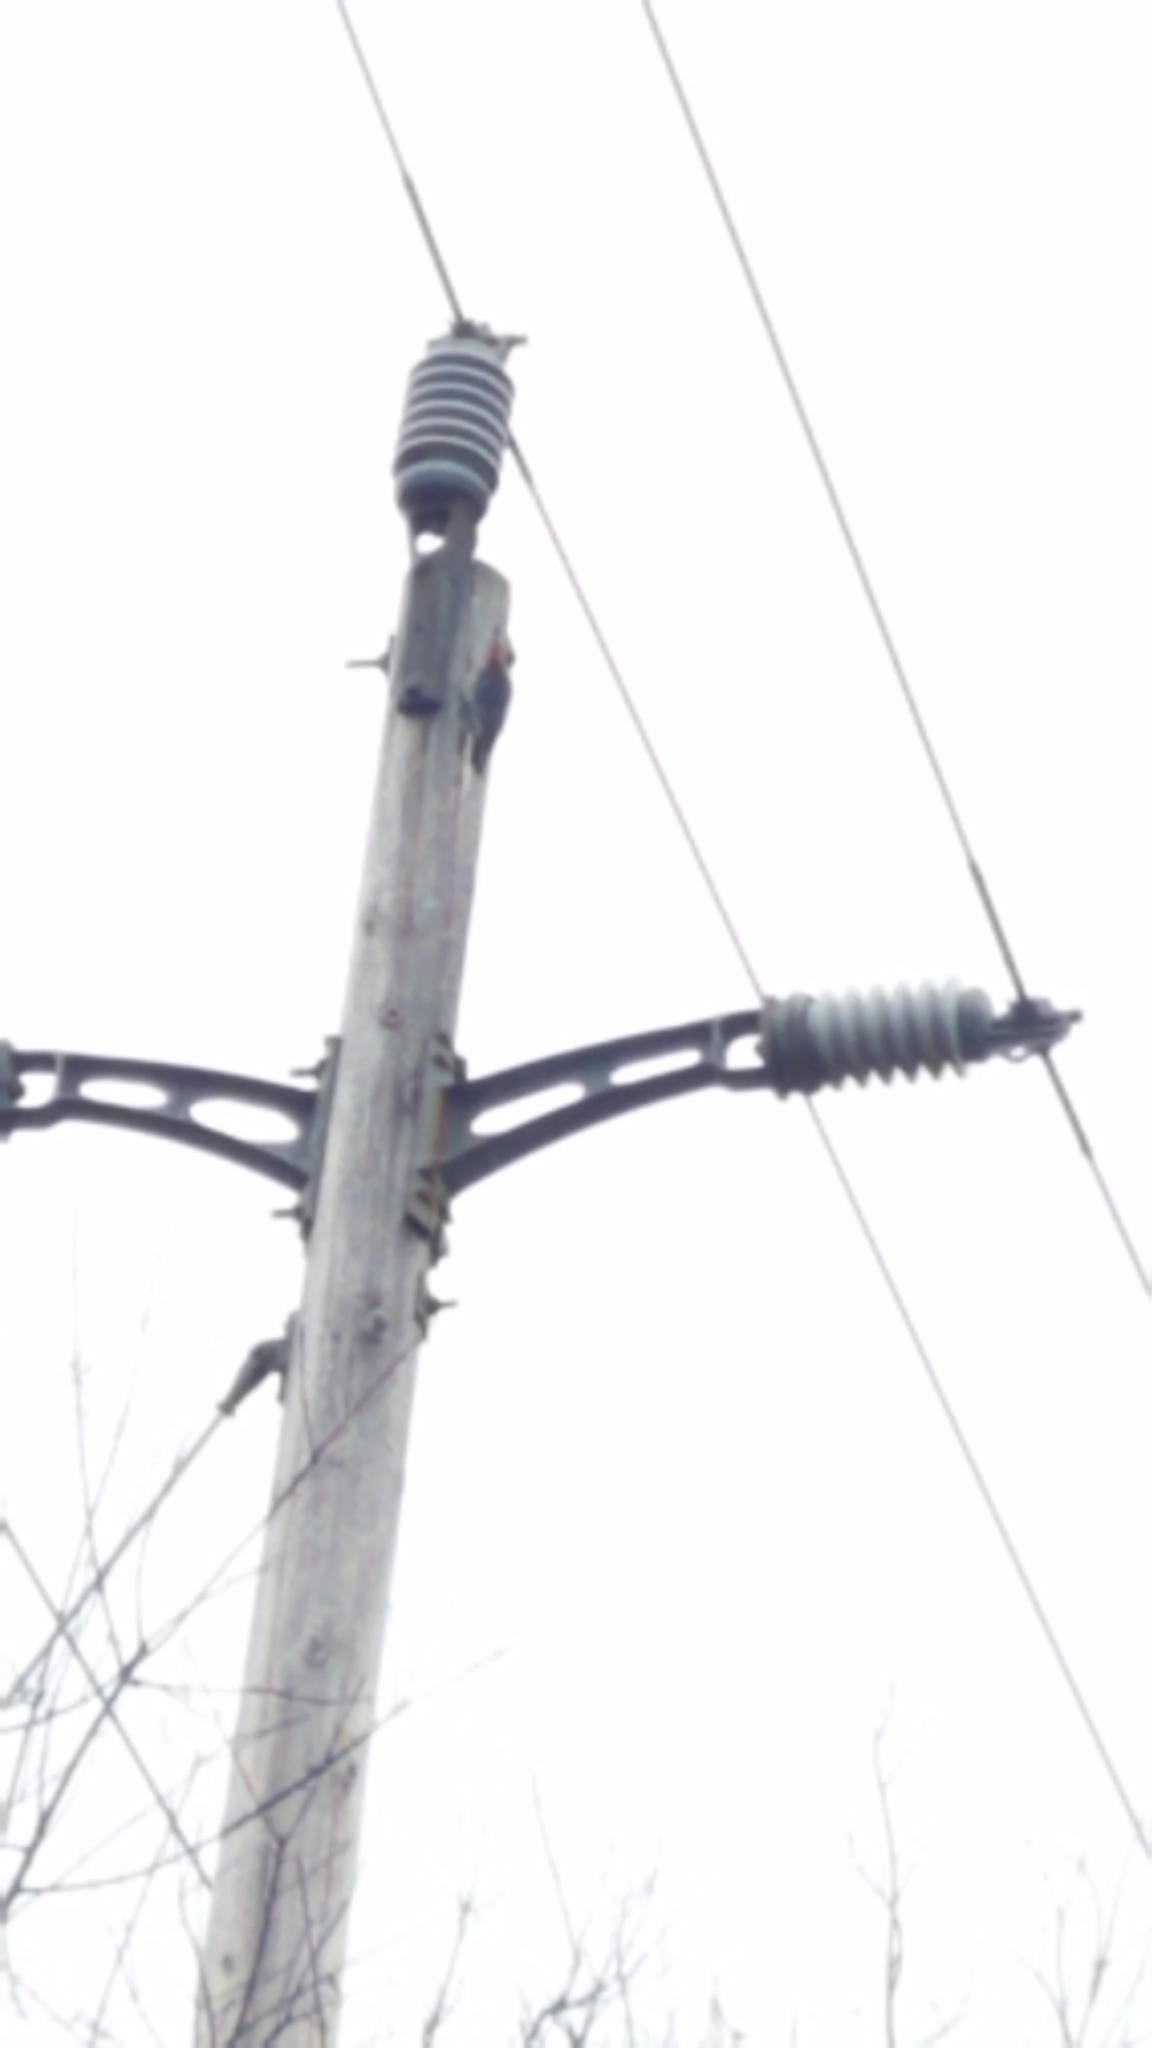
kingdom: Animalia
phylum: Chordata
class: Aves
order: Piciformes
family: Picidae
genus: Melanerpes
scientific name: Melanerpes carolinus
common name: Red-bellied woodpecker
